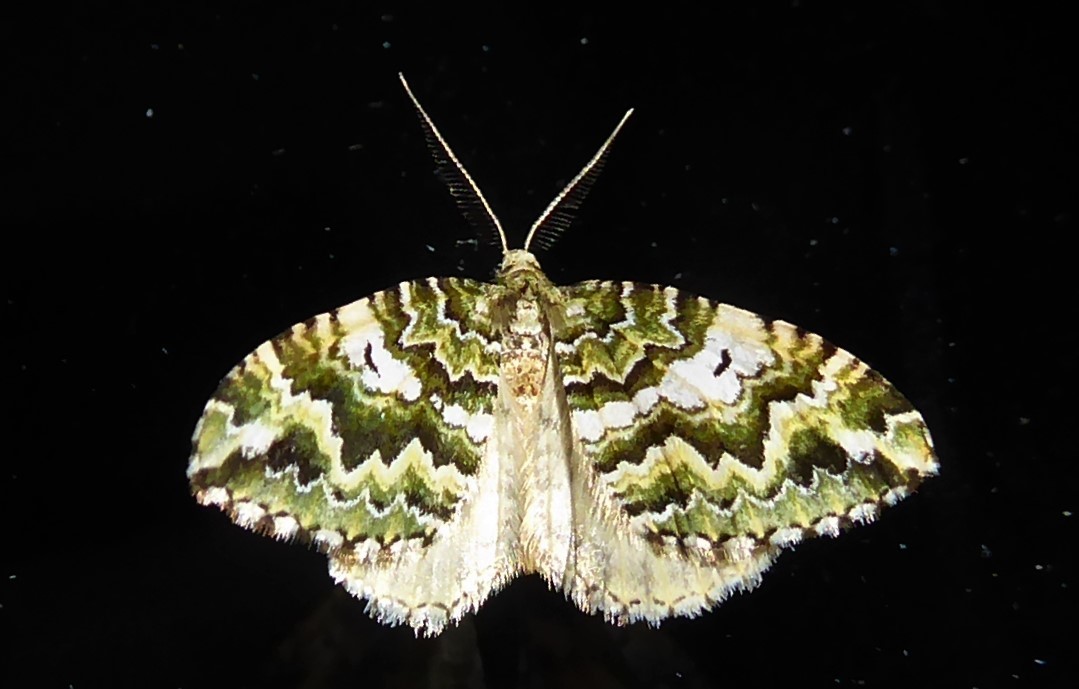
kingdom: Animalia
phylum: Arthropoda
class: Insecta
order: Lepidoptera
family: Geometridae
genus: Asaphodes
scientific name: Asaphodes beata
